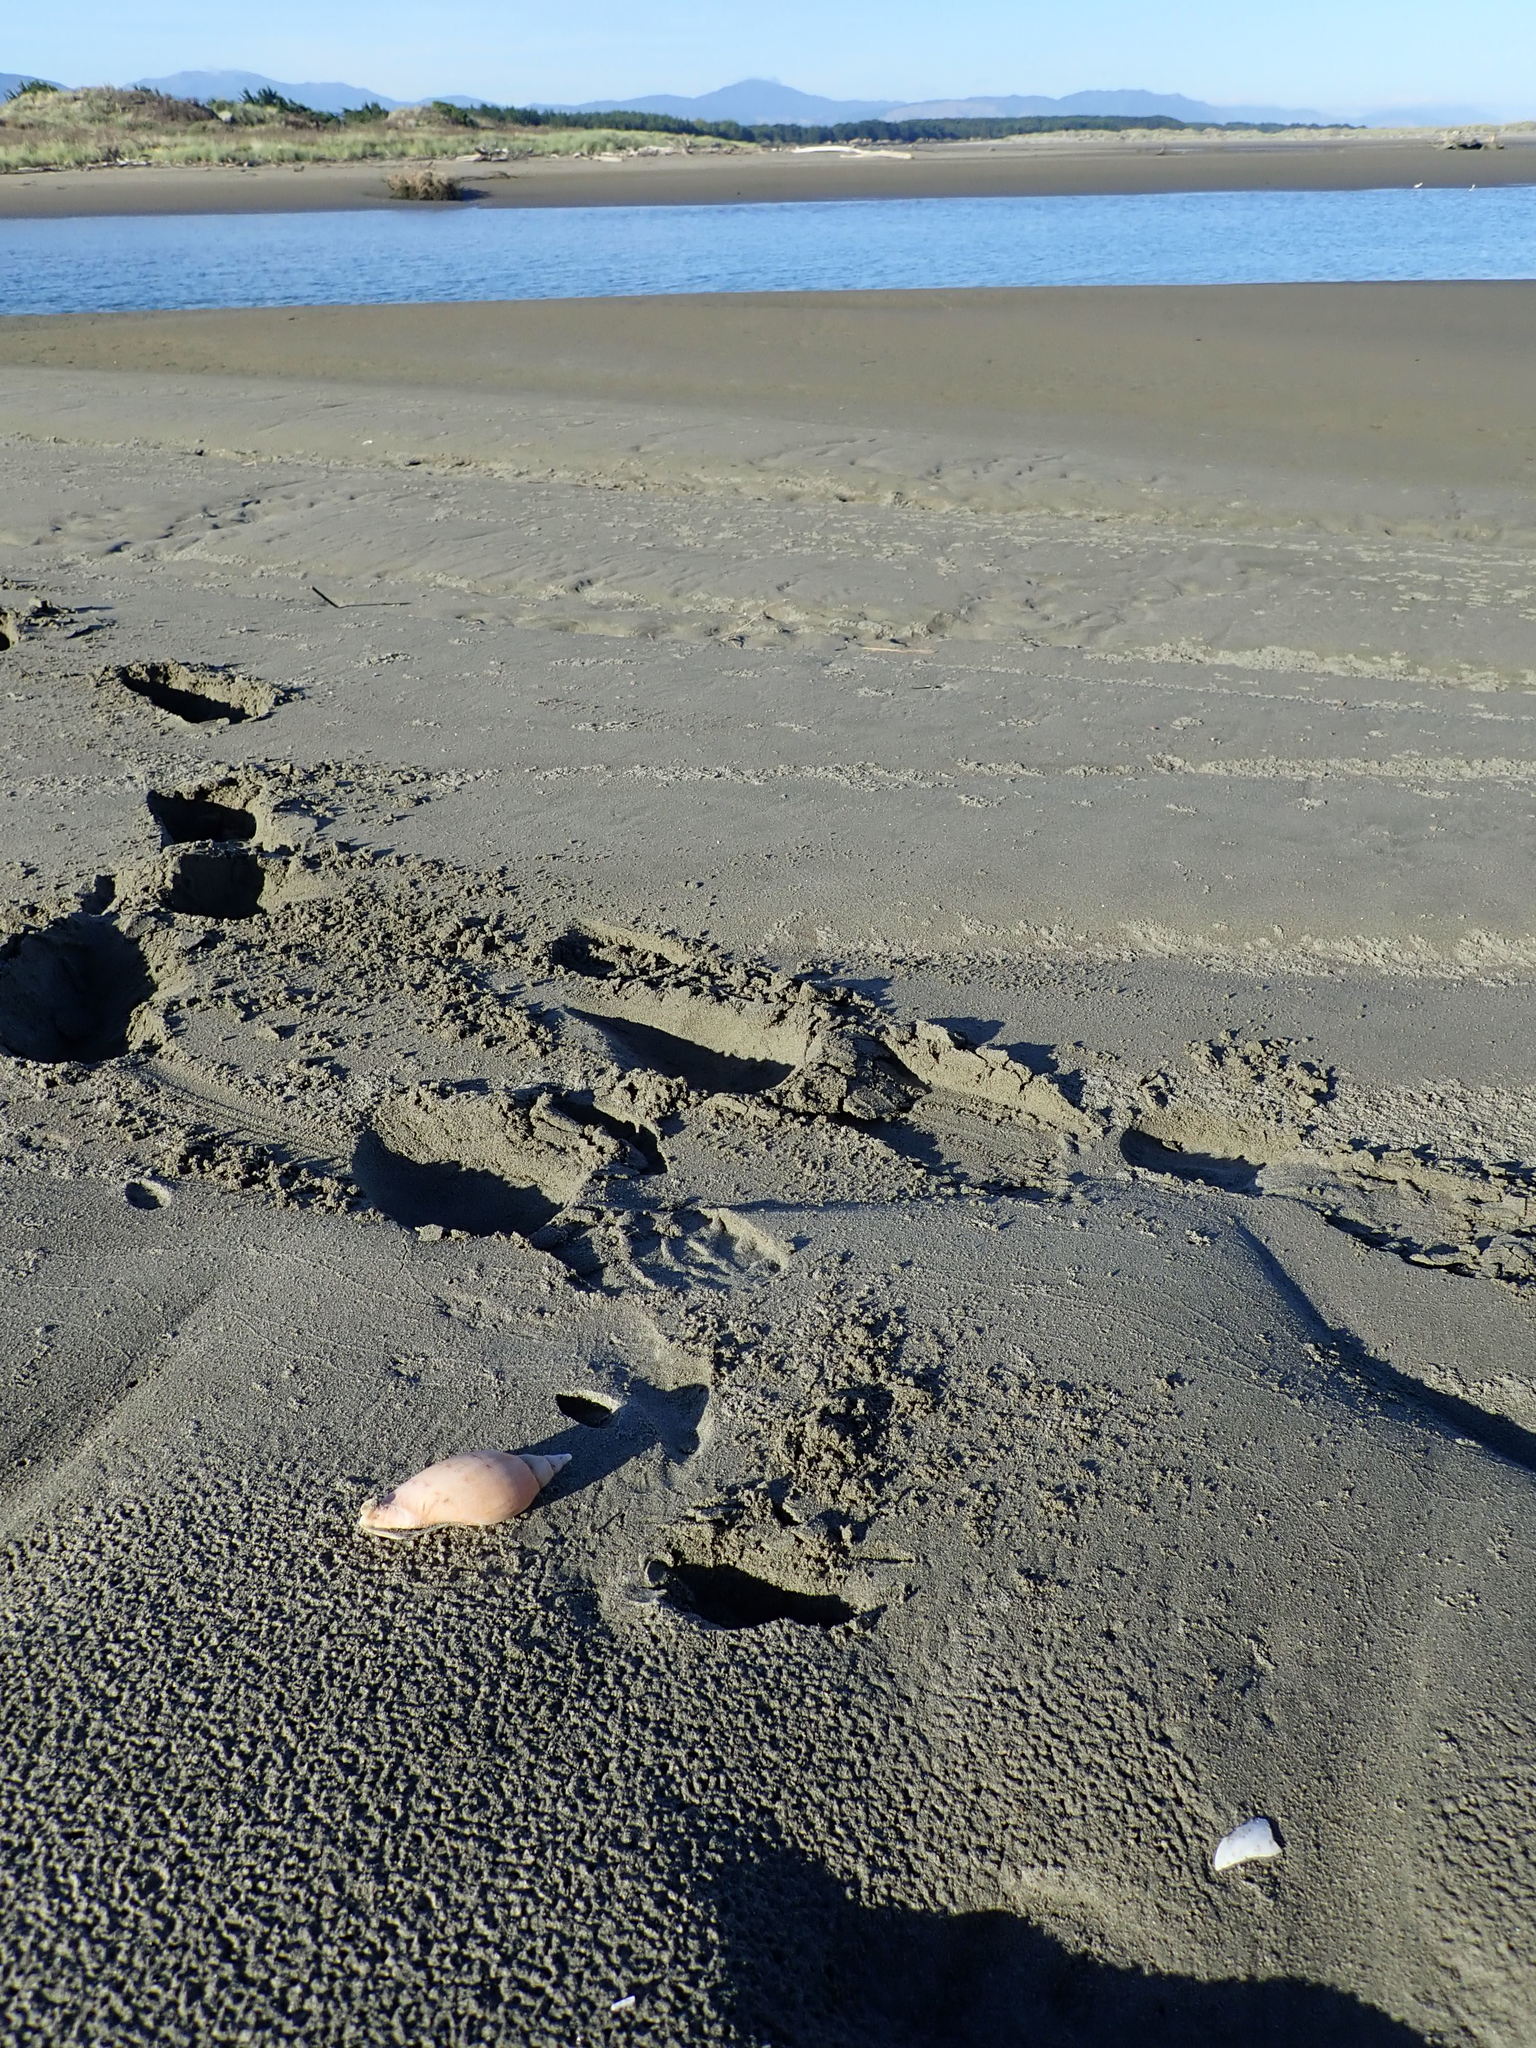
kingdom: Animalia
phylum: Mollusca
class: Gastropoda
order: Neogastropoda
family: Volutidae
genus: Alcithoe
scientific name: Alcithoe arabica
